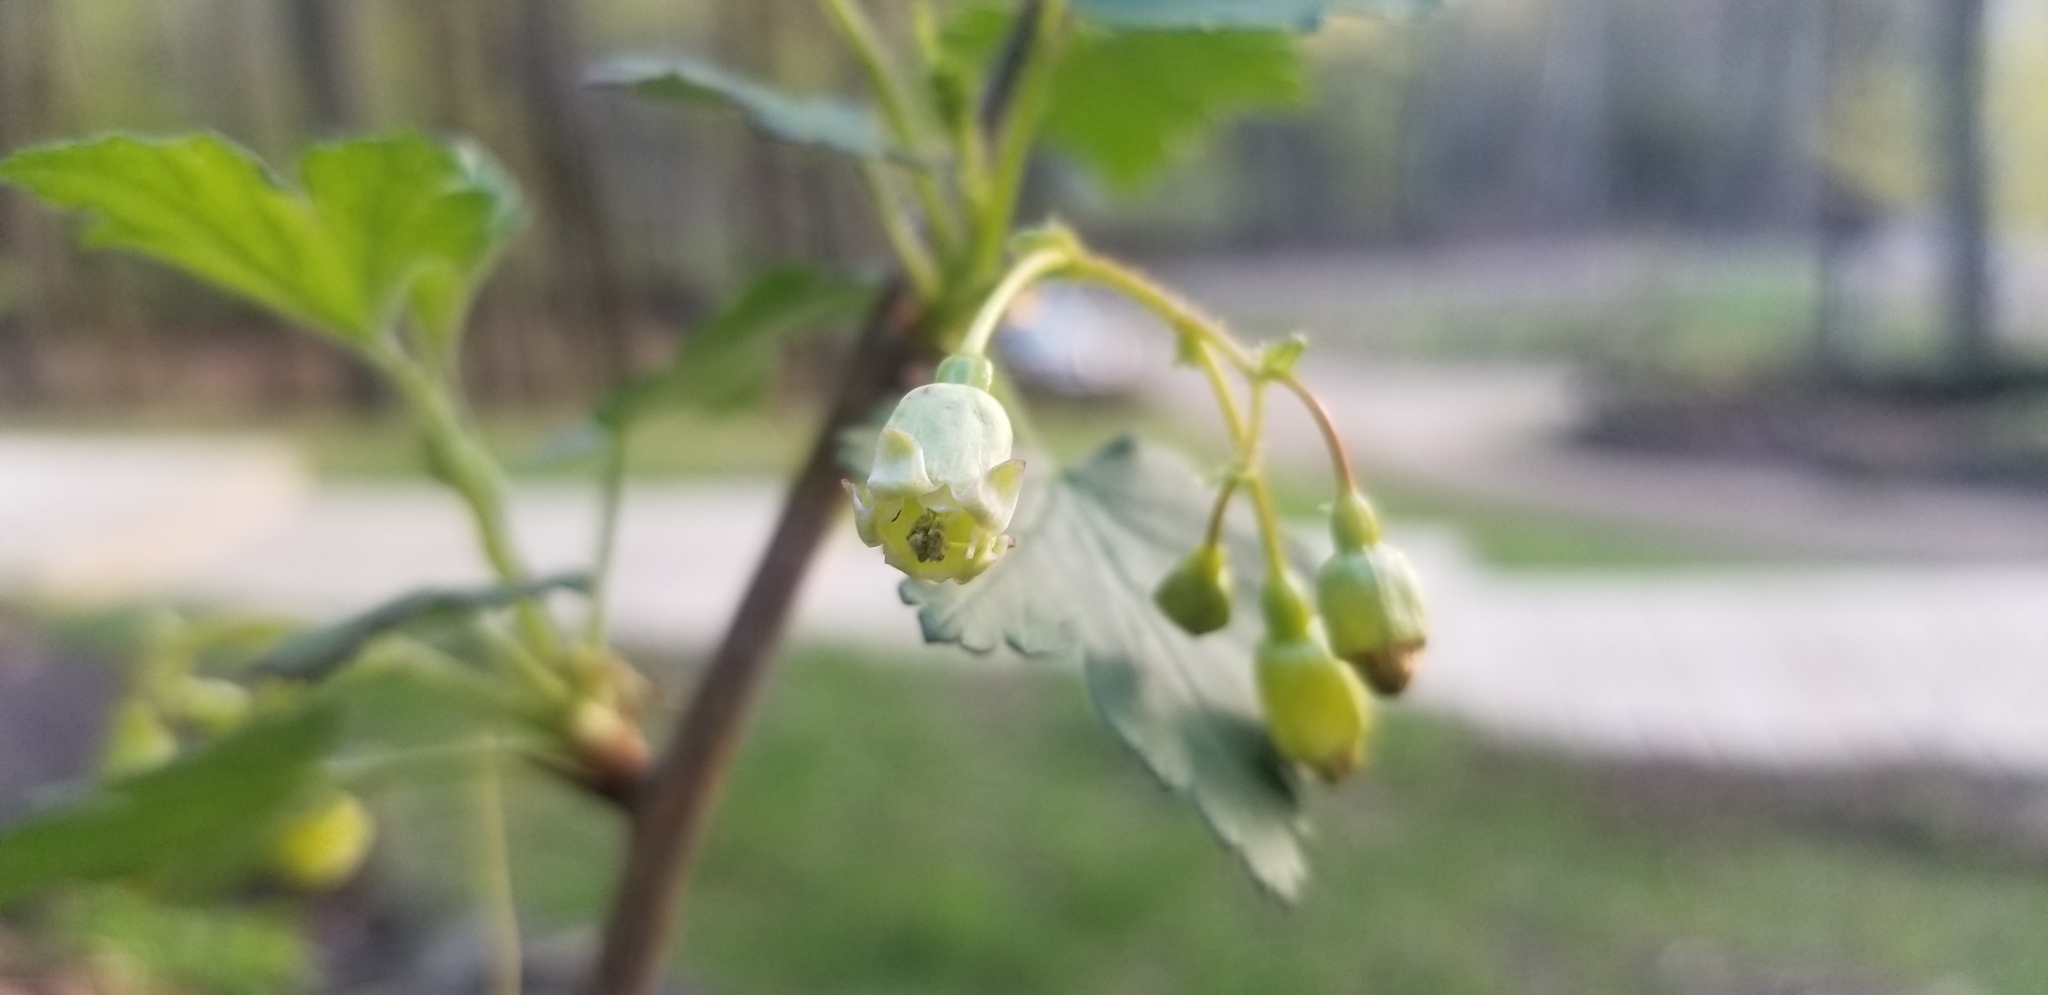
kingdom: Plantae
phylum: Tracheophyta
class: Magnoliopsida
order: Saxifragales
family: Grossulariaceae
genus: Ribes
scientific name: Ribes cynosbati
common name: American gooseberry
